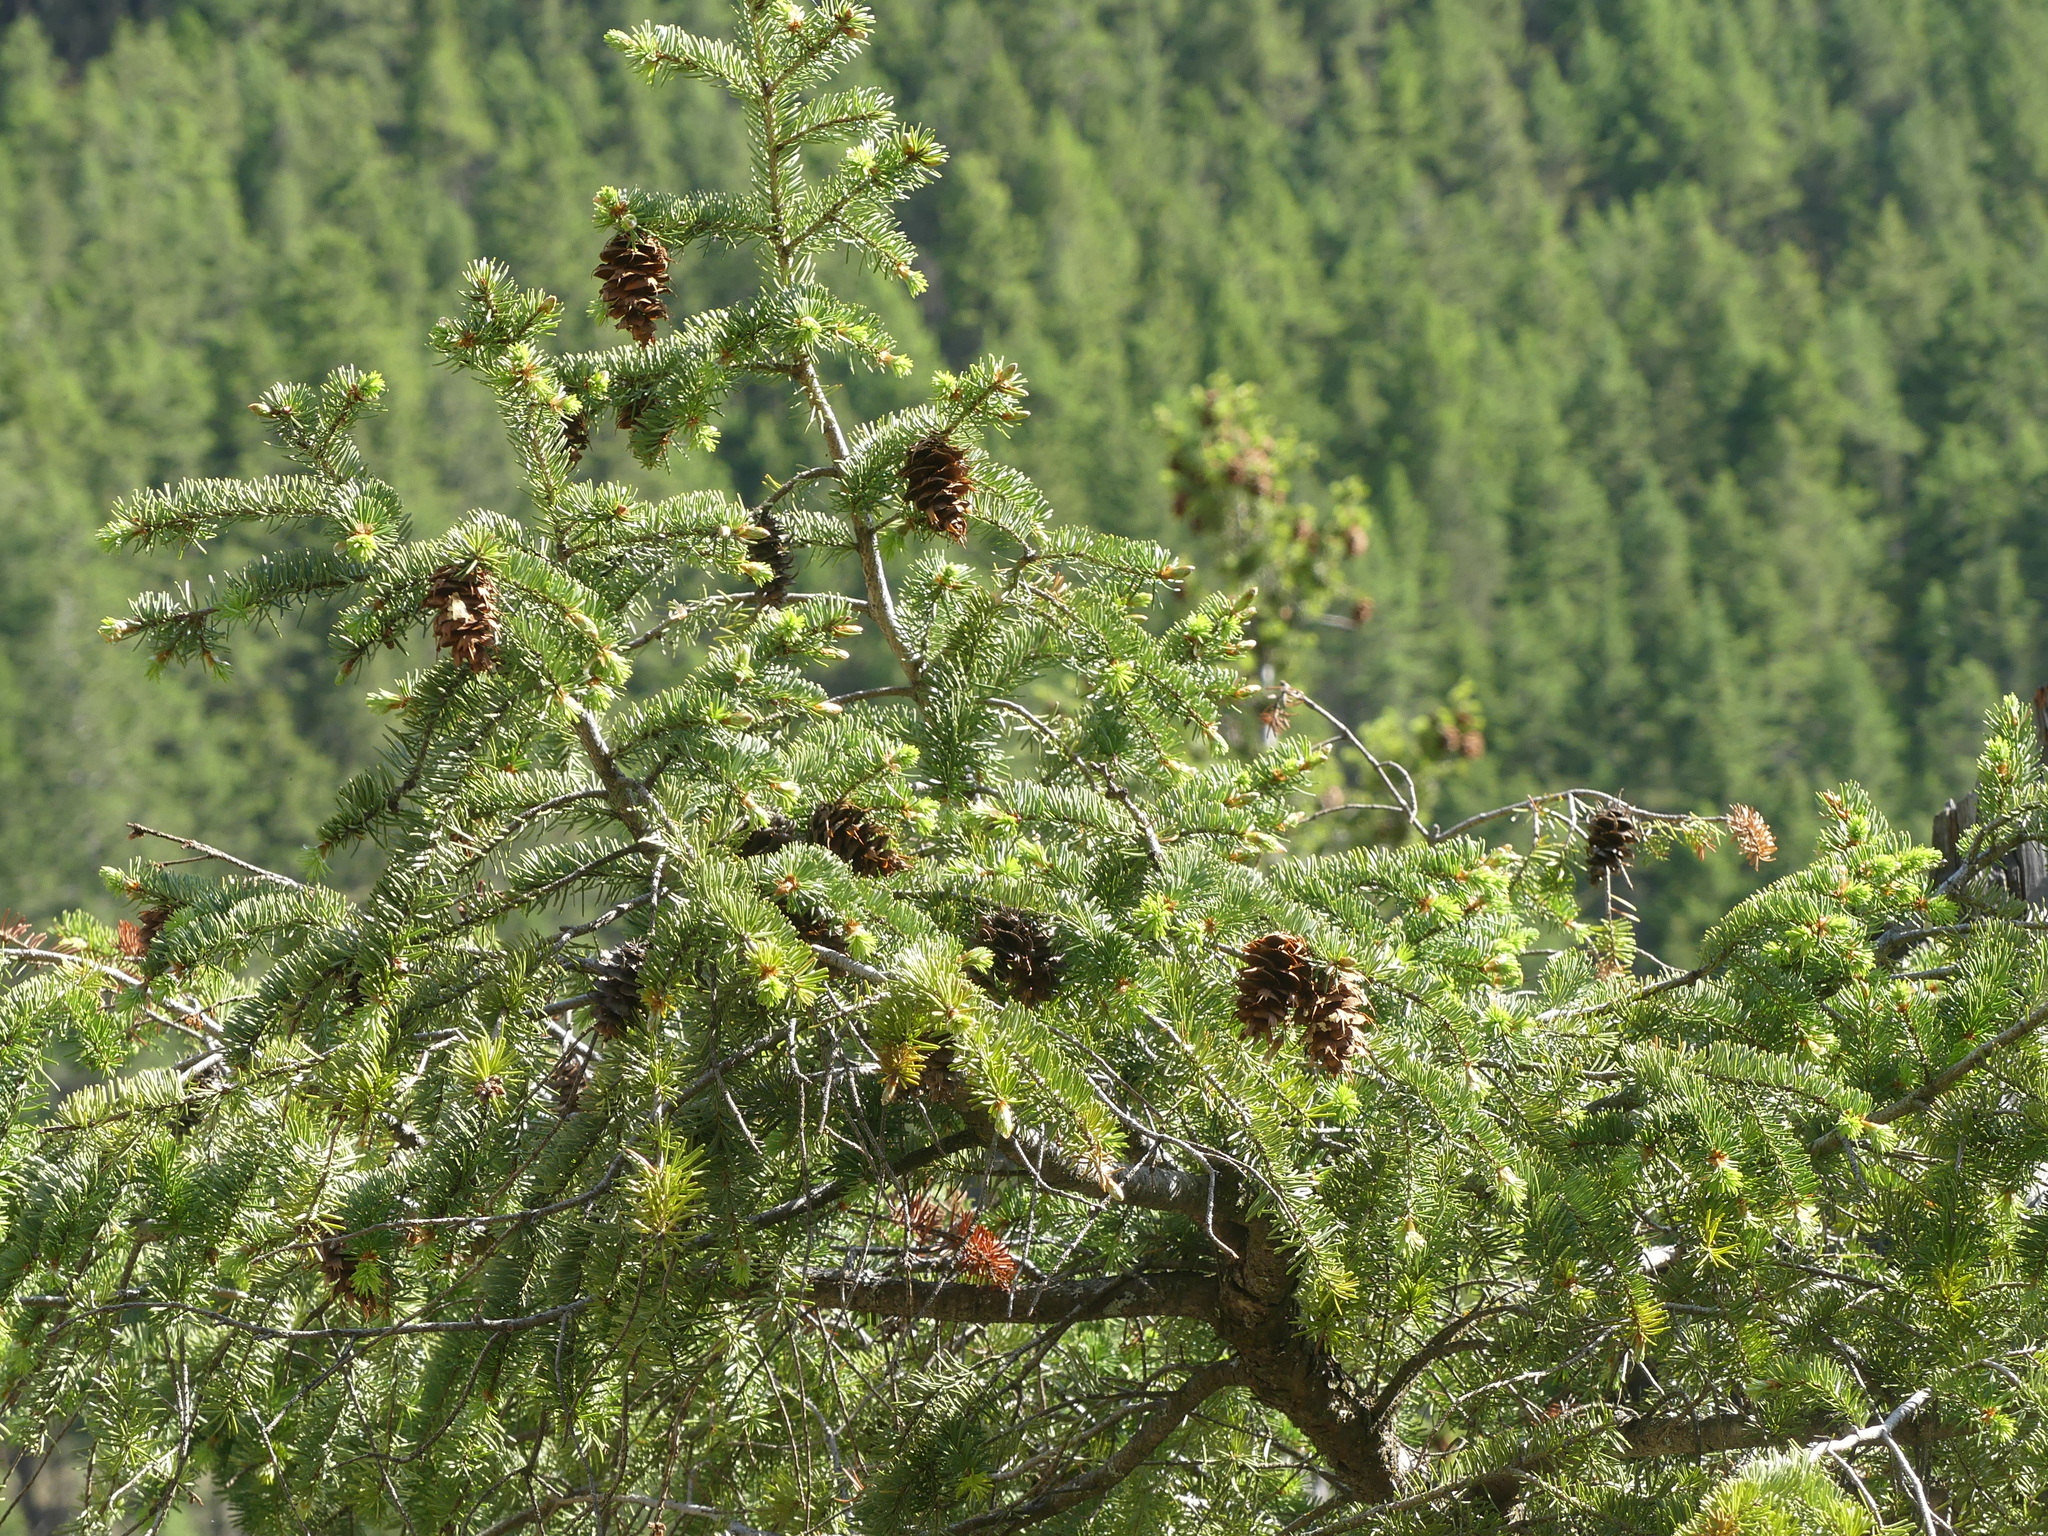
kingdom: Plantae
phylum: Tracheophyta
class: Pinopsida
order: Pinales
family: Pinaceae
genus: Pseudotsuga
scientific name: Pseudotsuga menziesii
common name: Douglas fir
